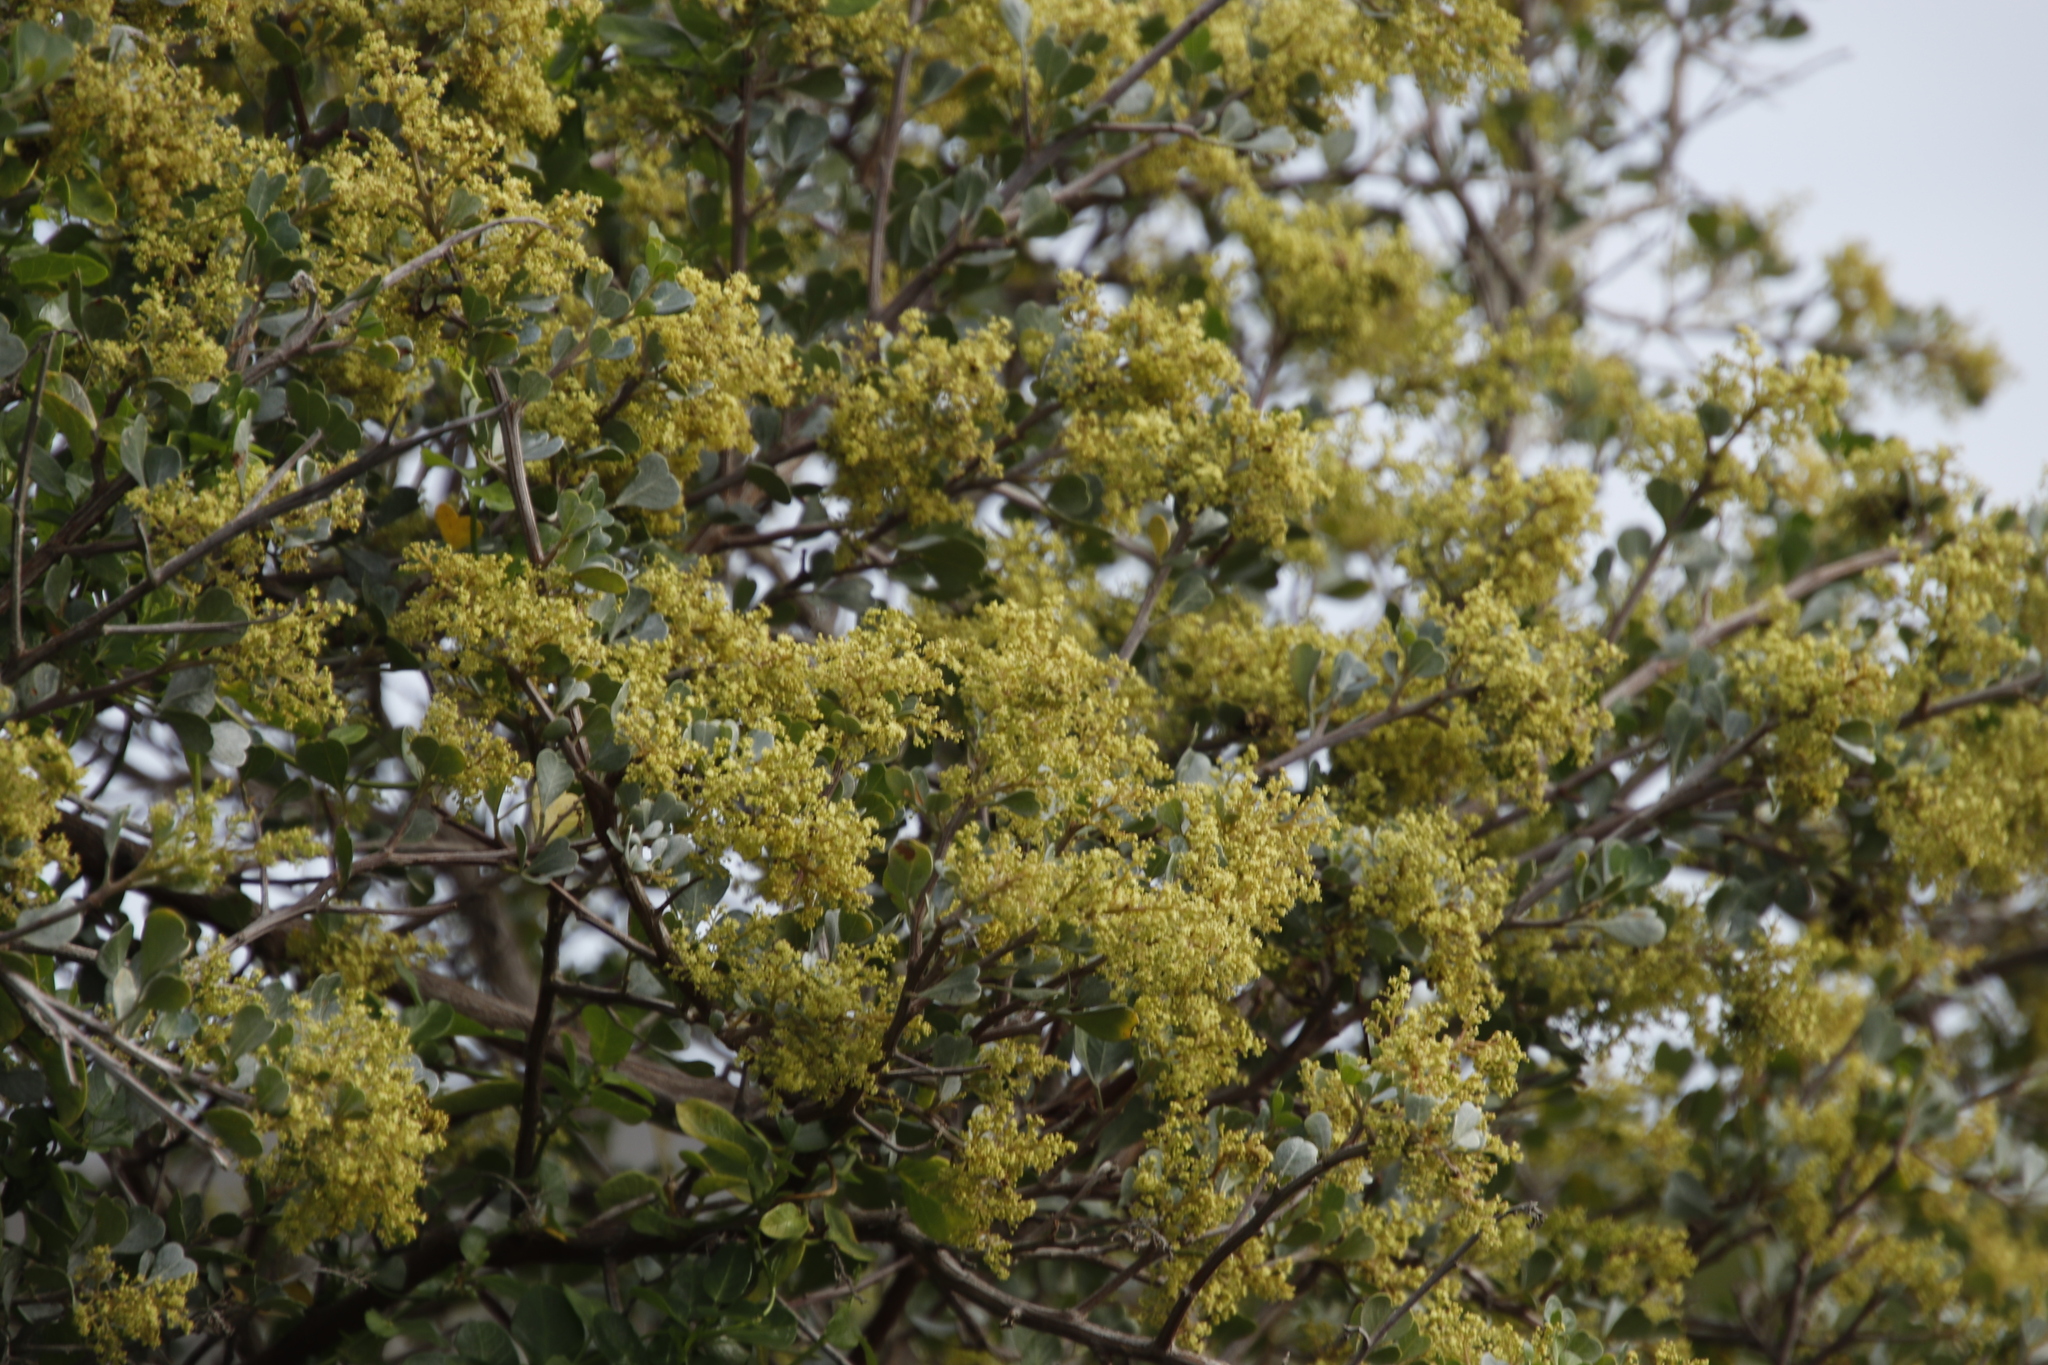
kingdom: Plantae
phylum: Tracheophyta
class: Magnoliopsida
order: Sapindales
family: Anacardiaceae
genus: Searsia
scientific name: Searsia glauca
